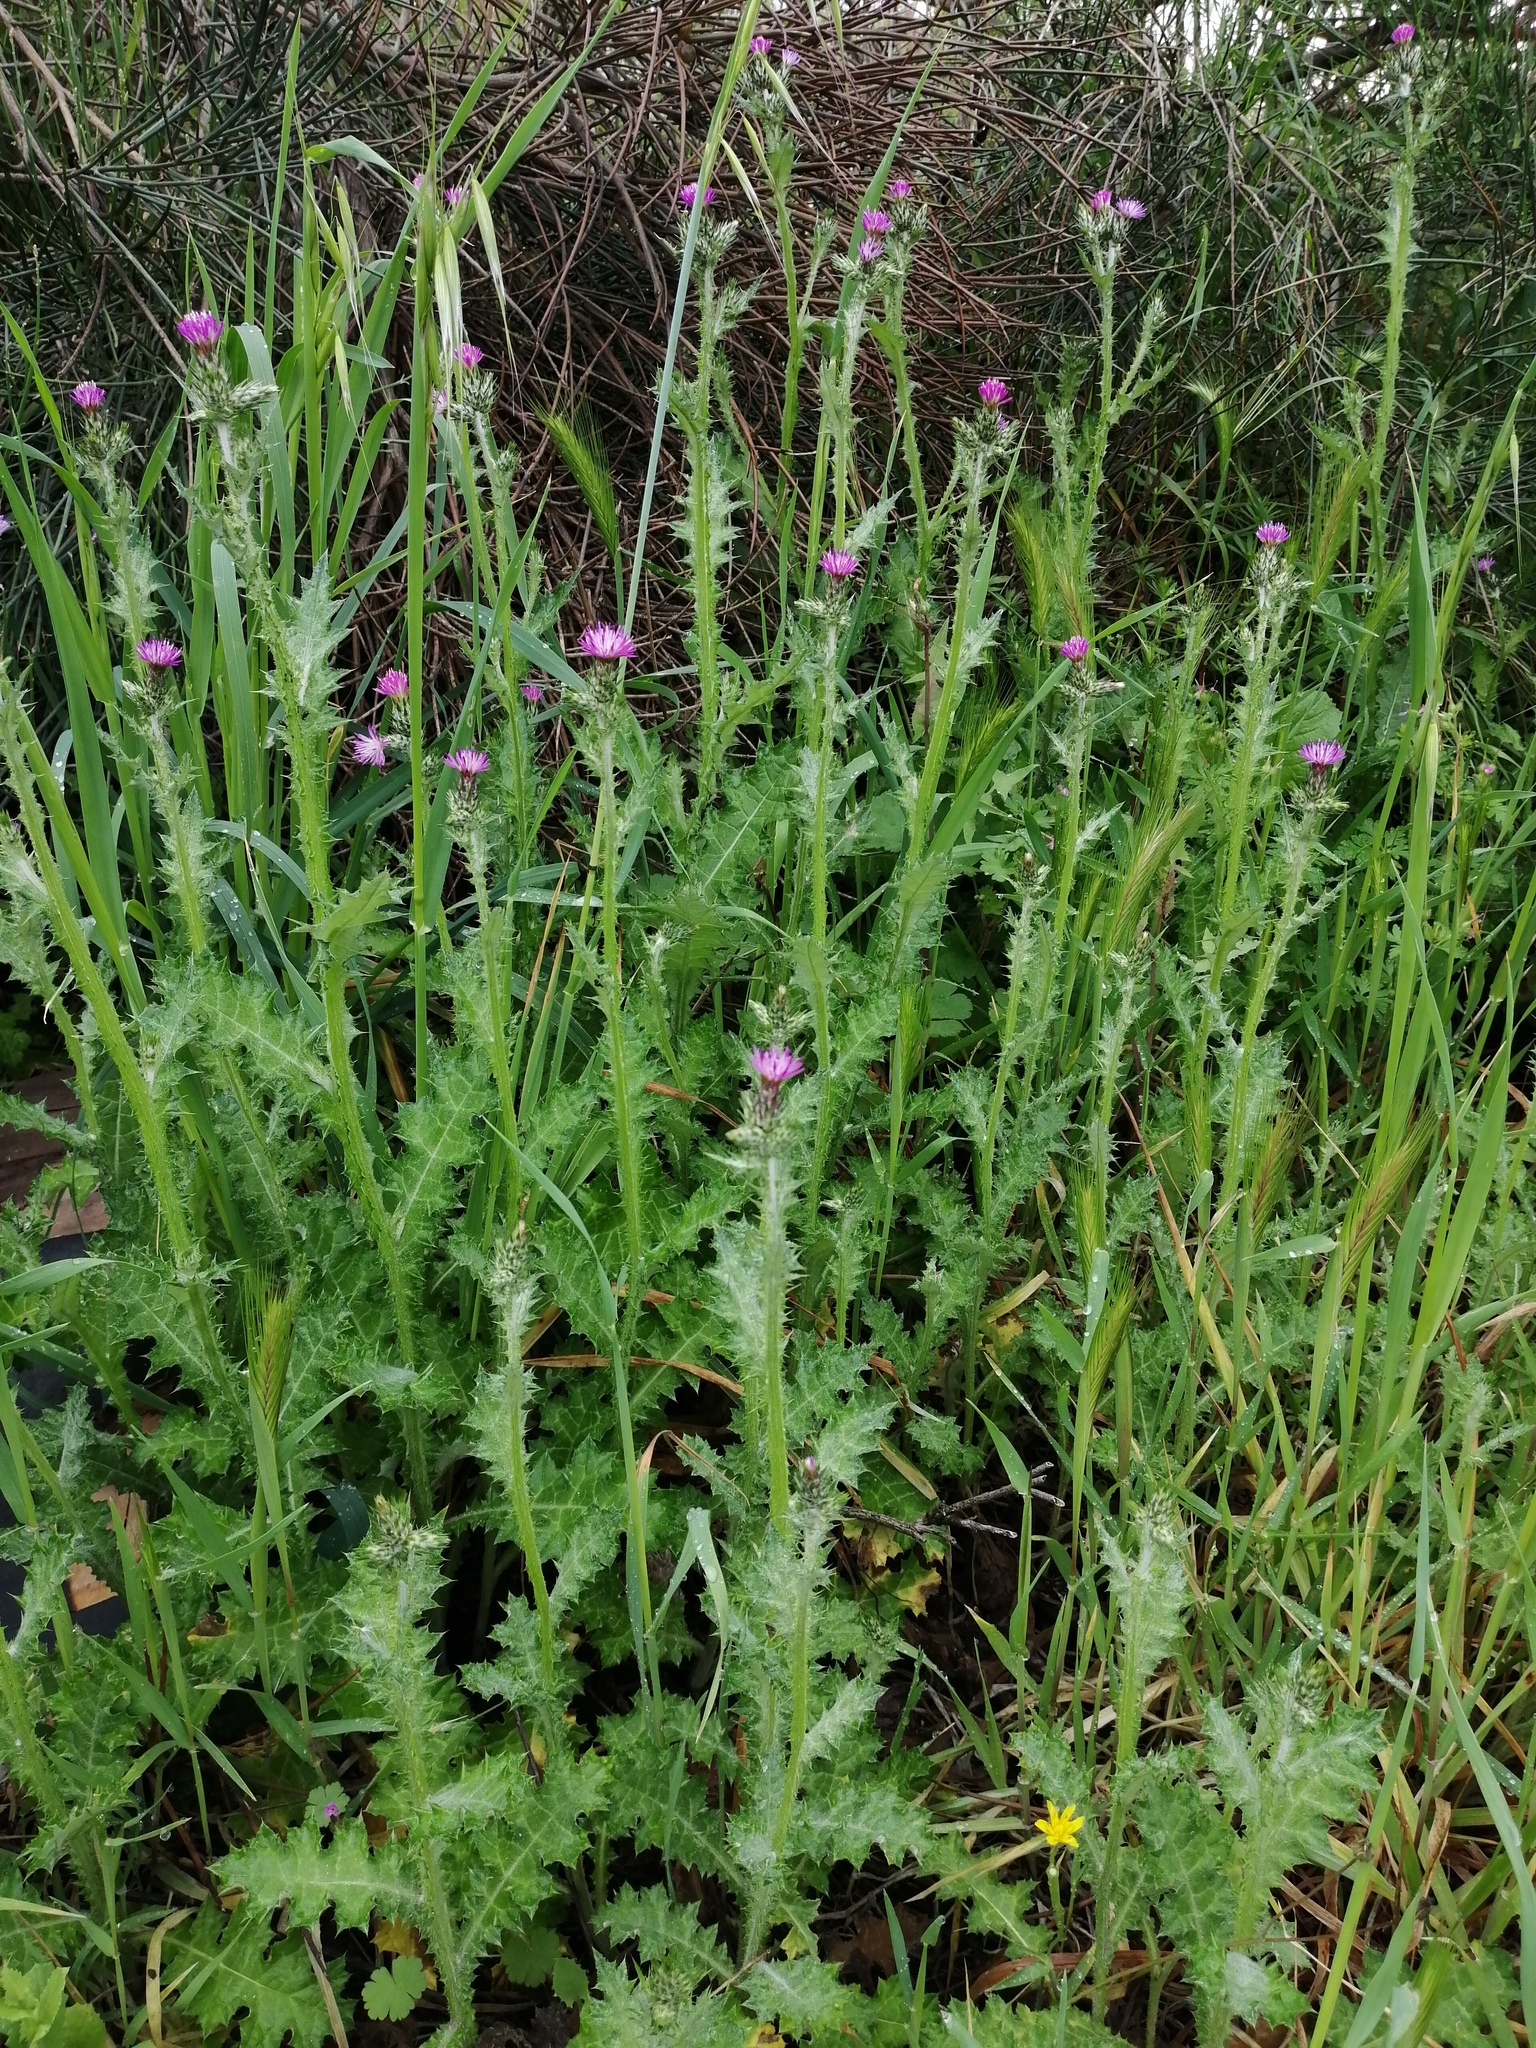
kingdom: Plantae
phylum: Tracheophyta
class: Magnoliopsida
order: Asterales
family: Asteraceae
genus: Carduus
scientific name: Carduus pycnocephalus
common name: Plymouth thistle
